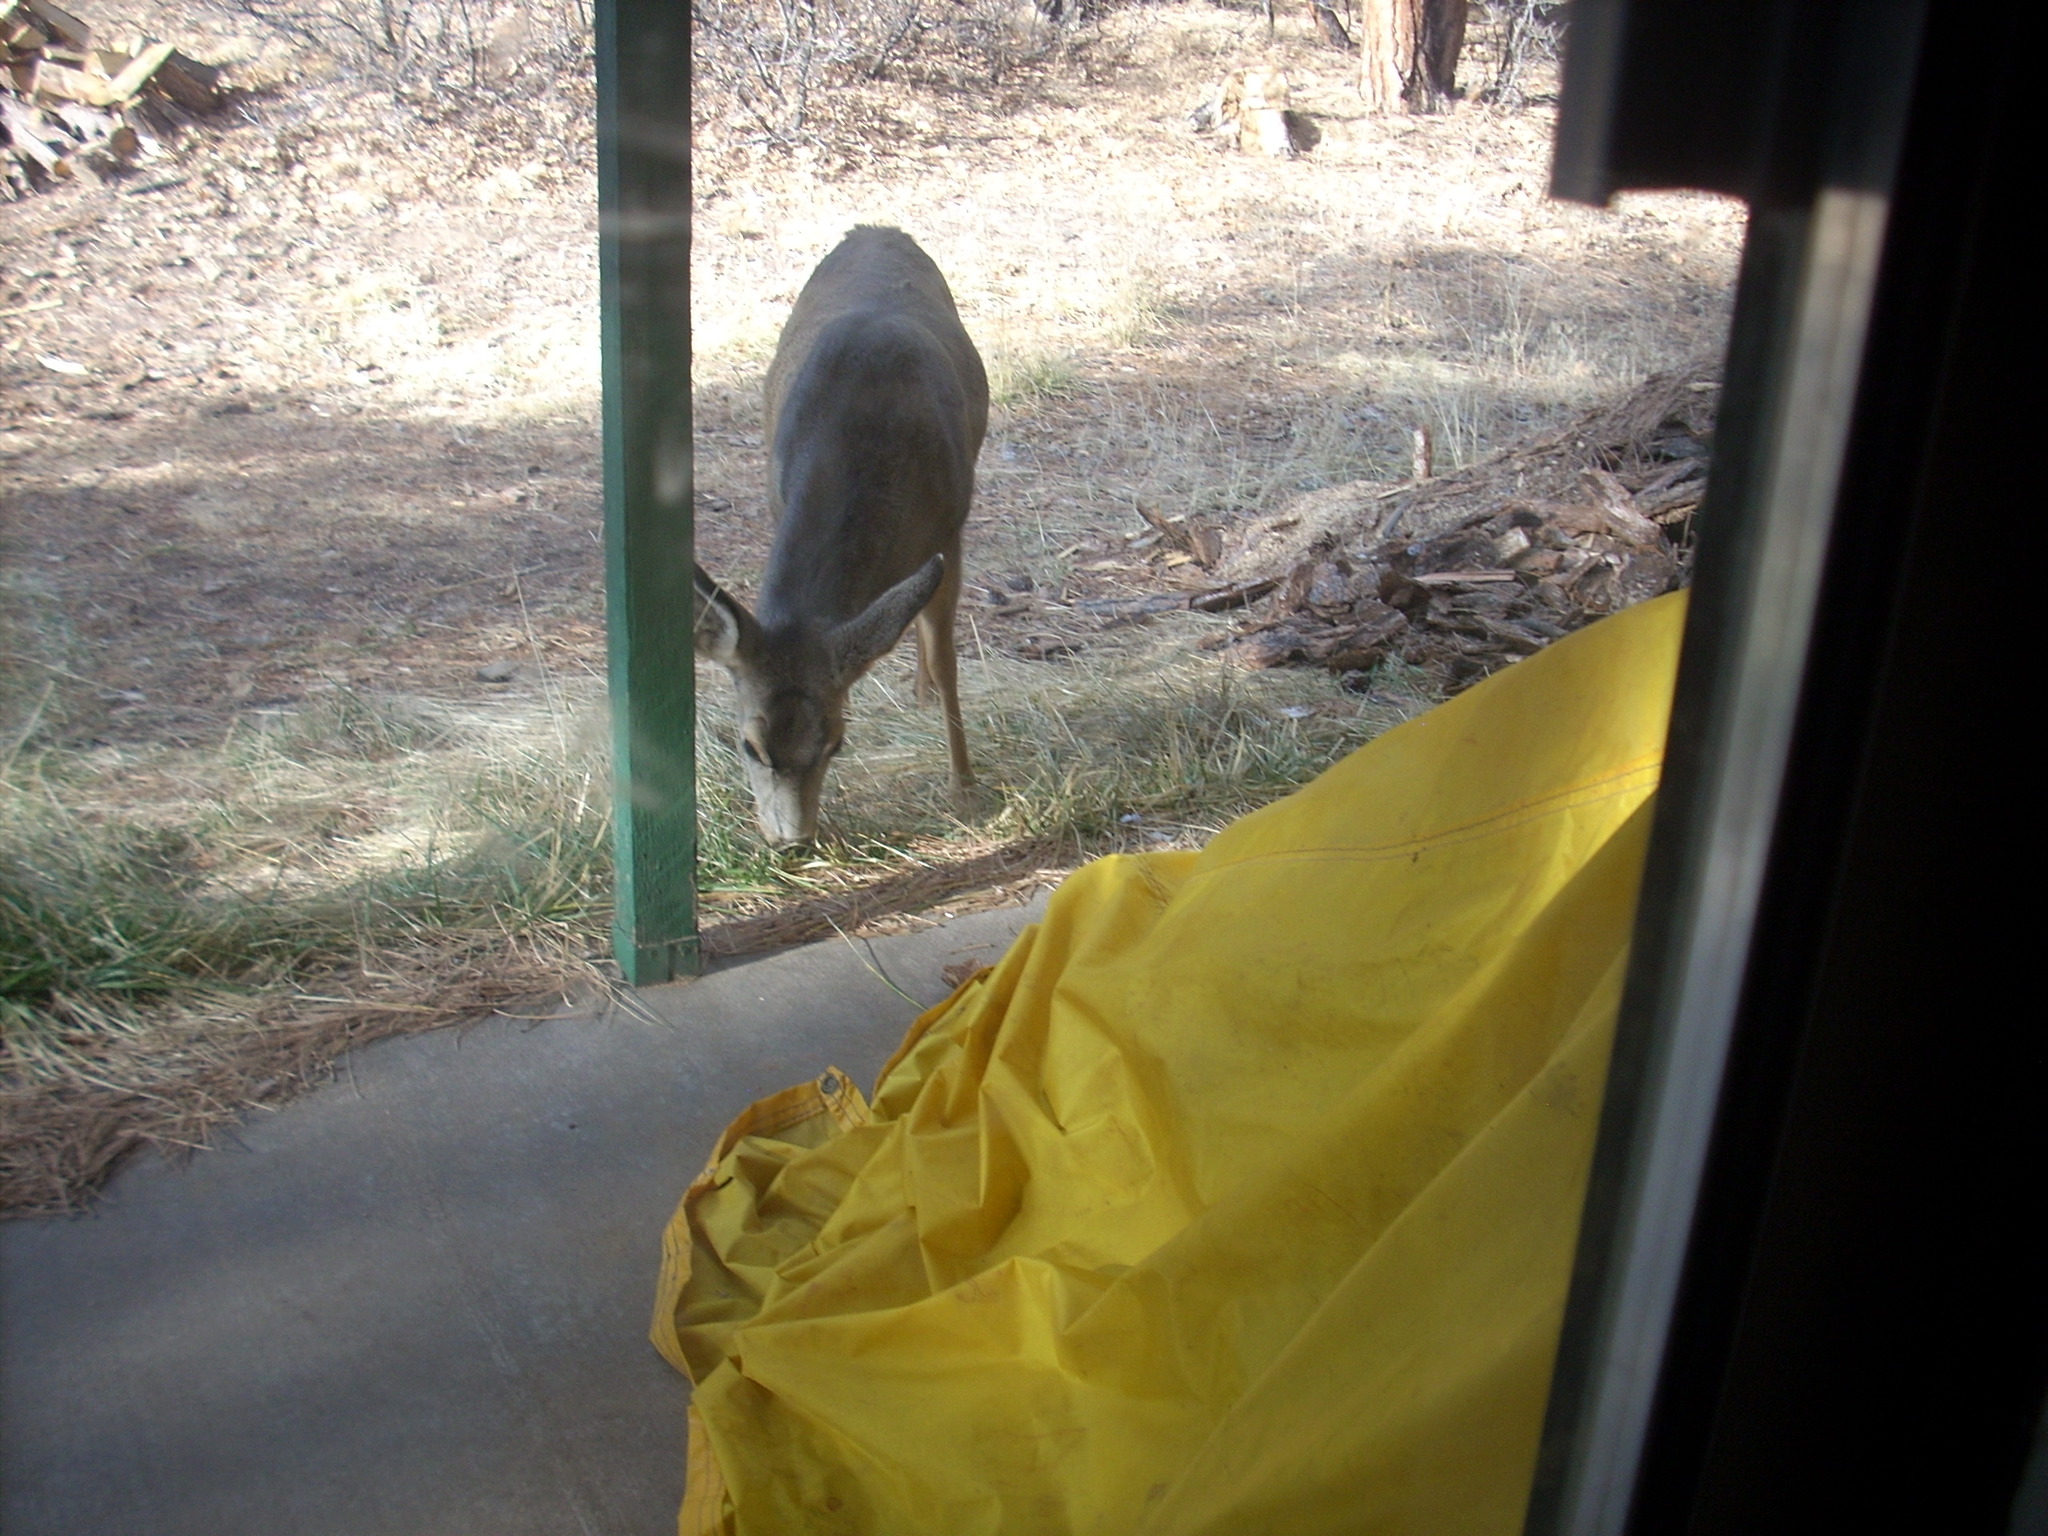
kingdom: Animalia
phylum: Chordata
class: Mammalia
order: Artiodactyla
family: Cervidae
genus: Odocoileus
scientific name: Odocoileus hemionus
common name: Mule deer
